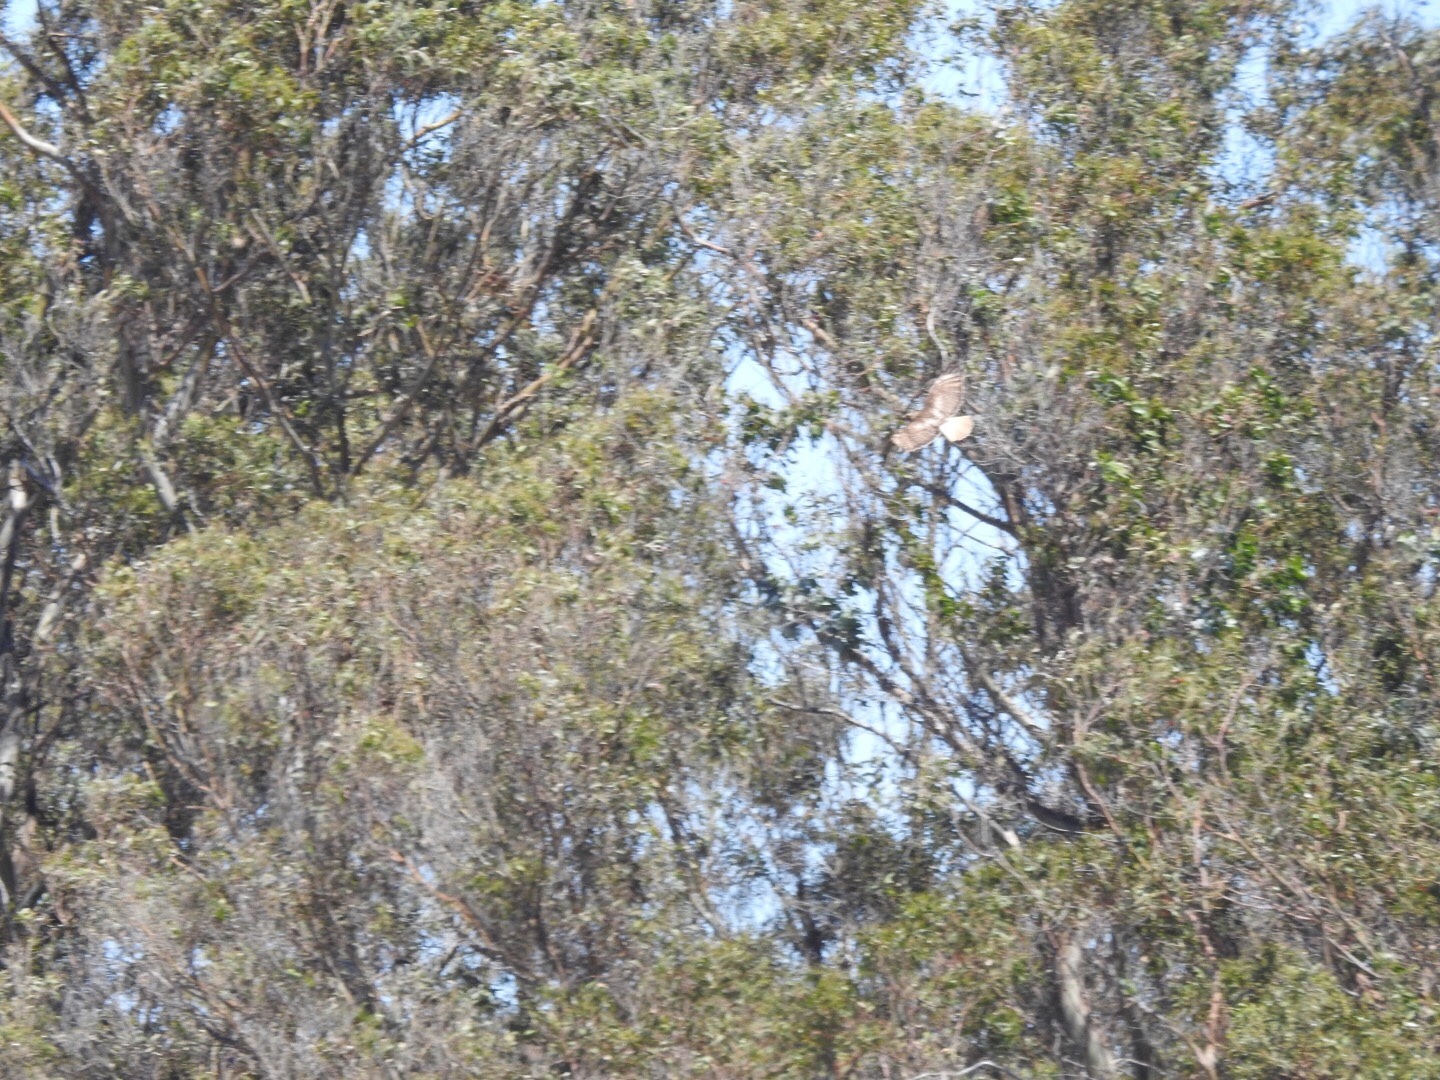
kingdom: Animalia
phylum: Chordata
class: Aves
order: Accipitriformes
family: Accipitridae
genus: Buteo
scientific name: Buteo jamaicensis
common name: Red-tailed hawk
